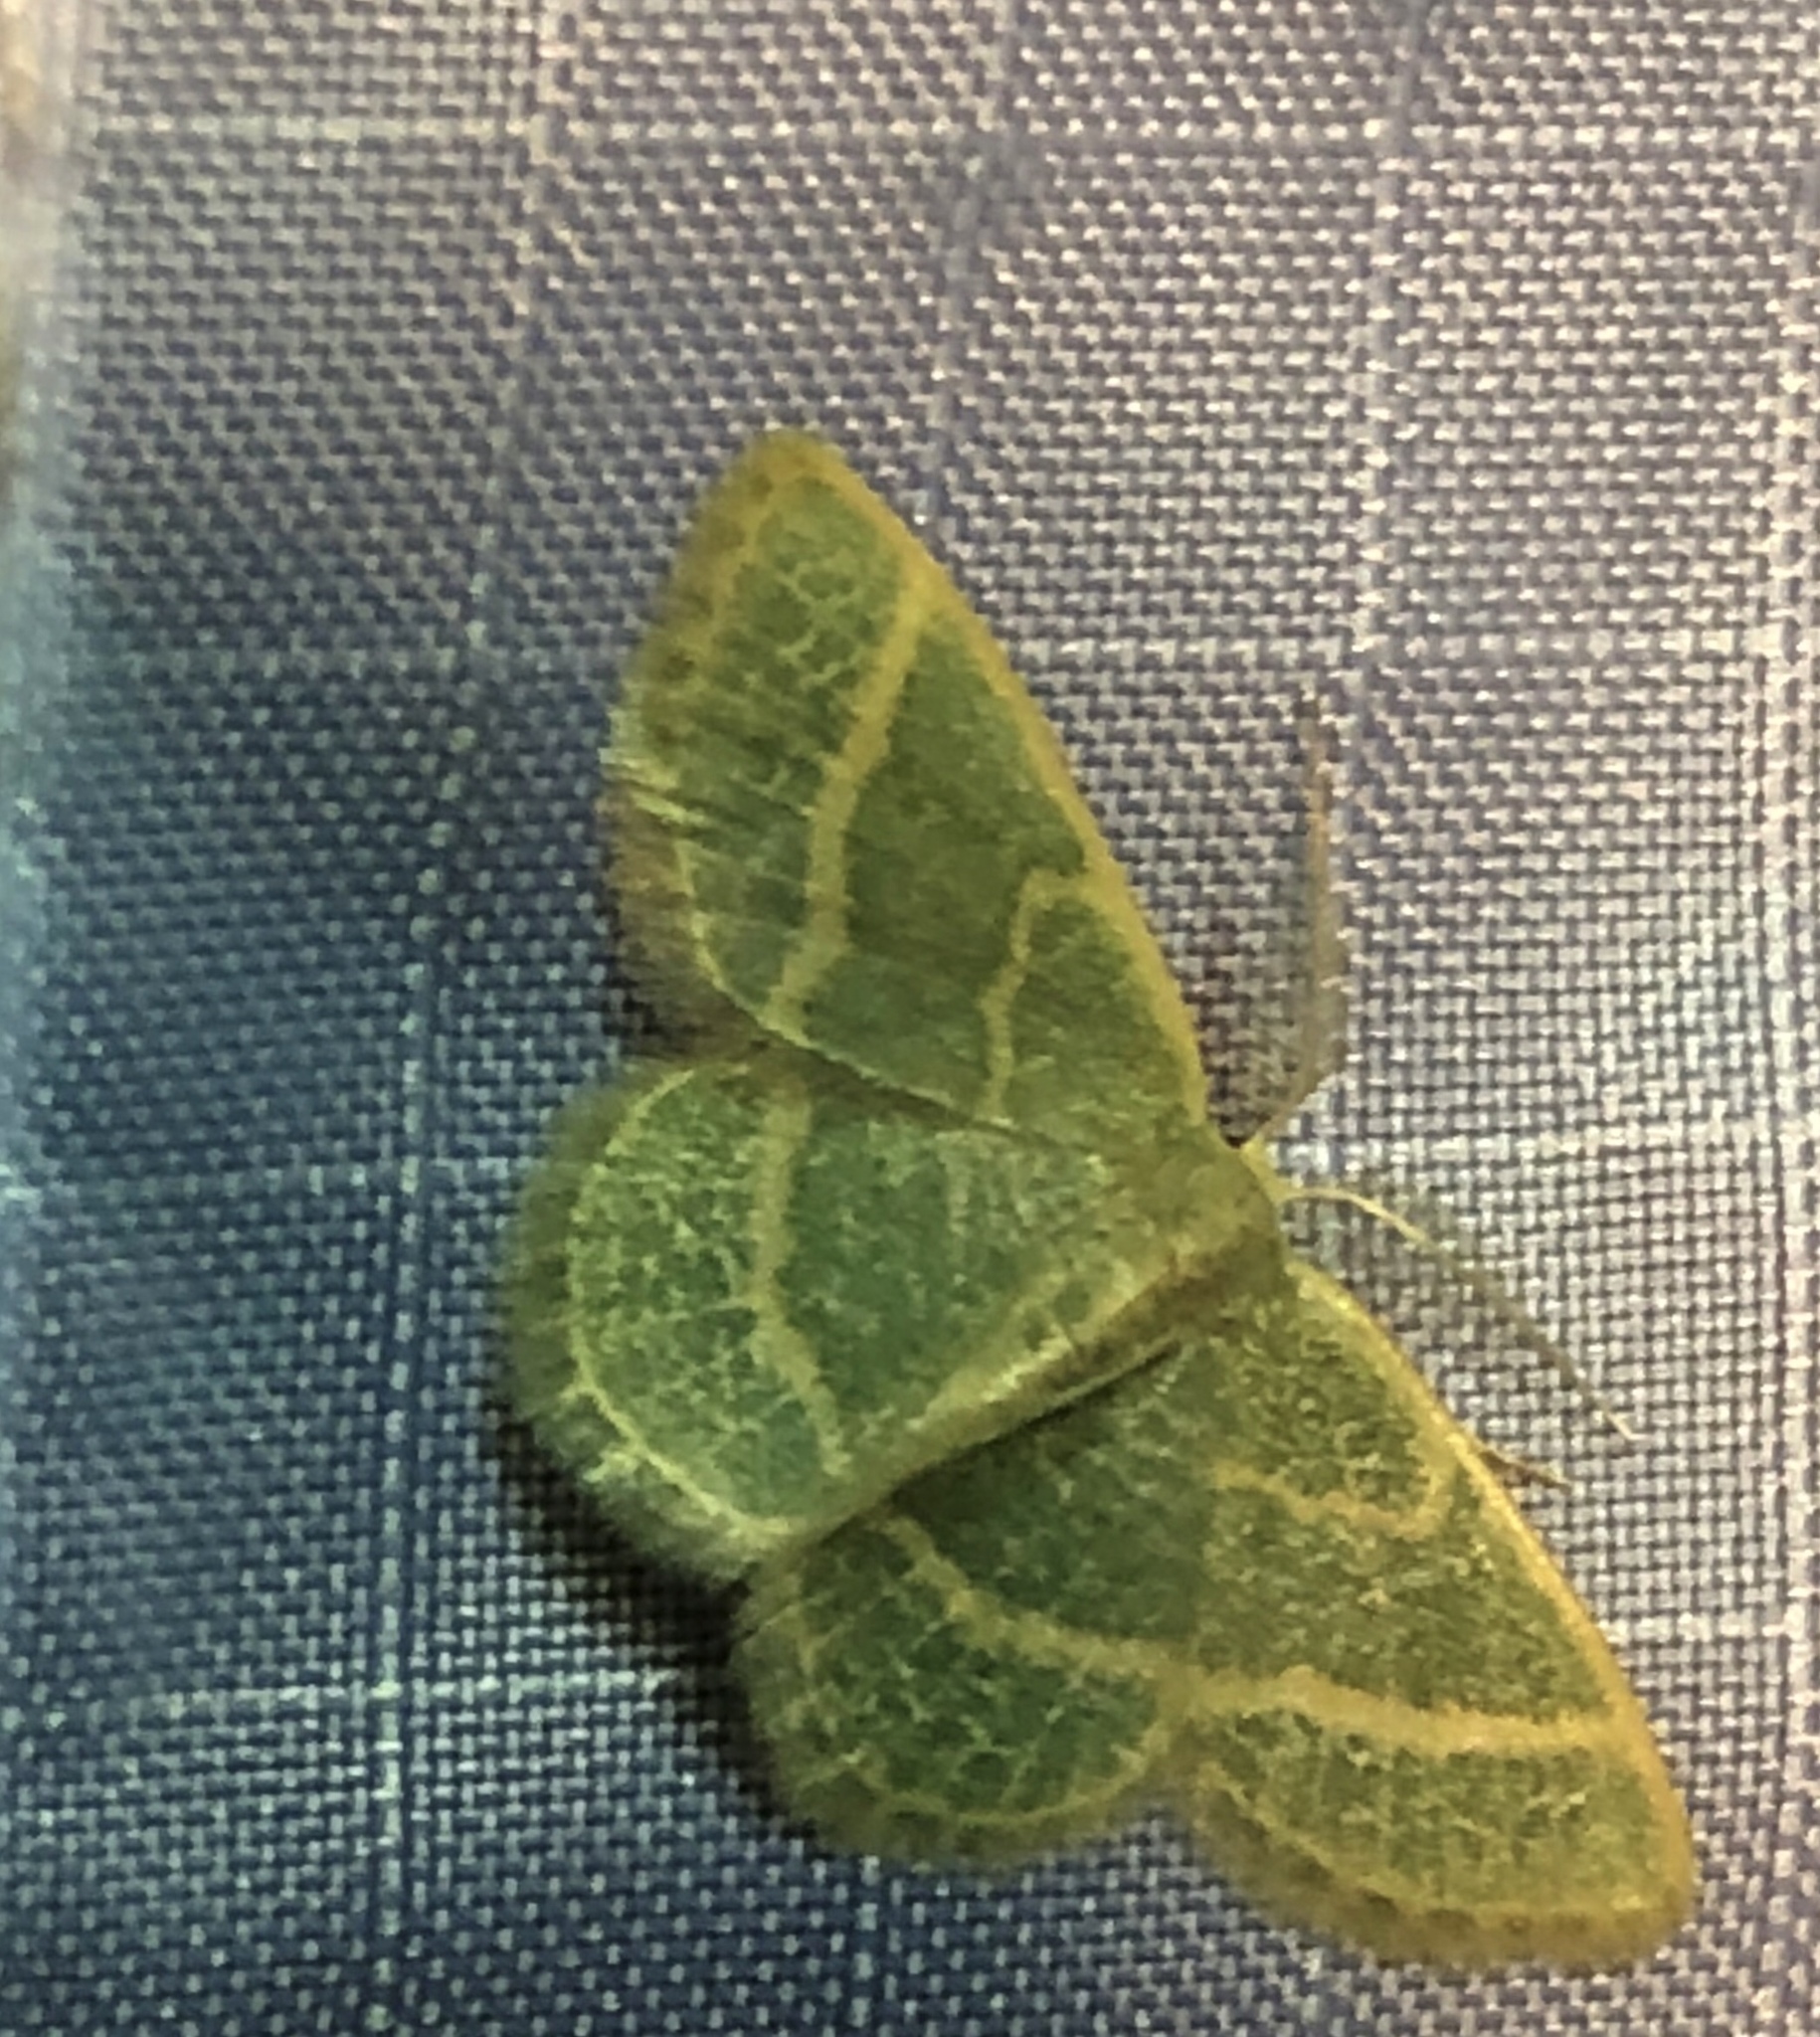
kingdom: Animalia
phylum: Arthropoda
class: Insecta
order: Lepidoptera
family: Geometridae
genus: Chlorochlamys
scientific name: Chlorochlamys chloroleucaria
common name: Blackberry looper
